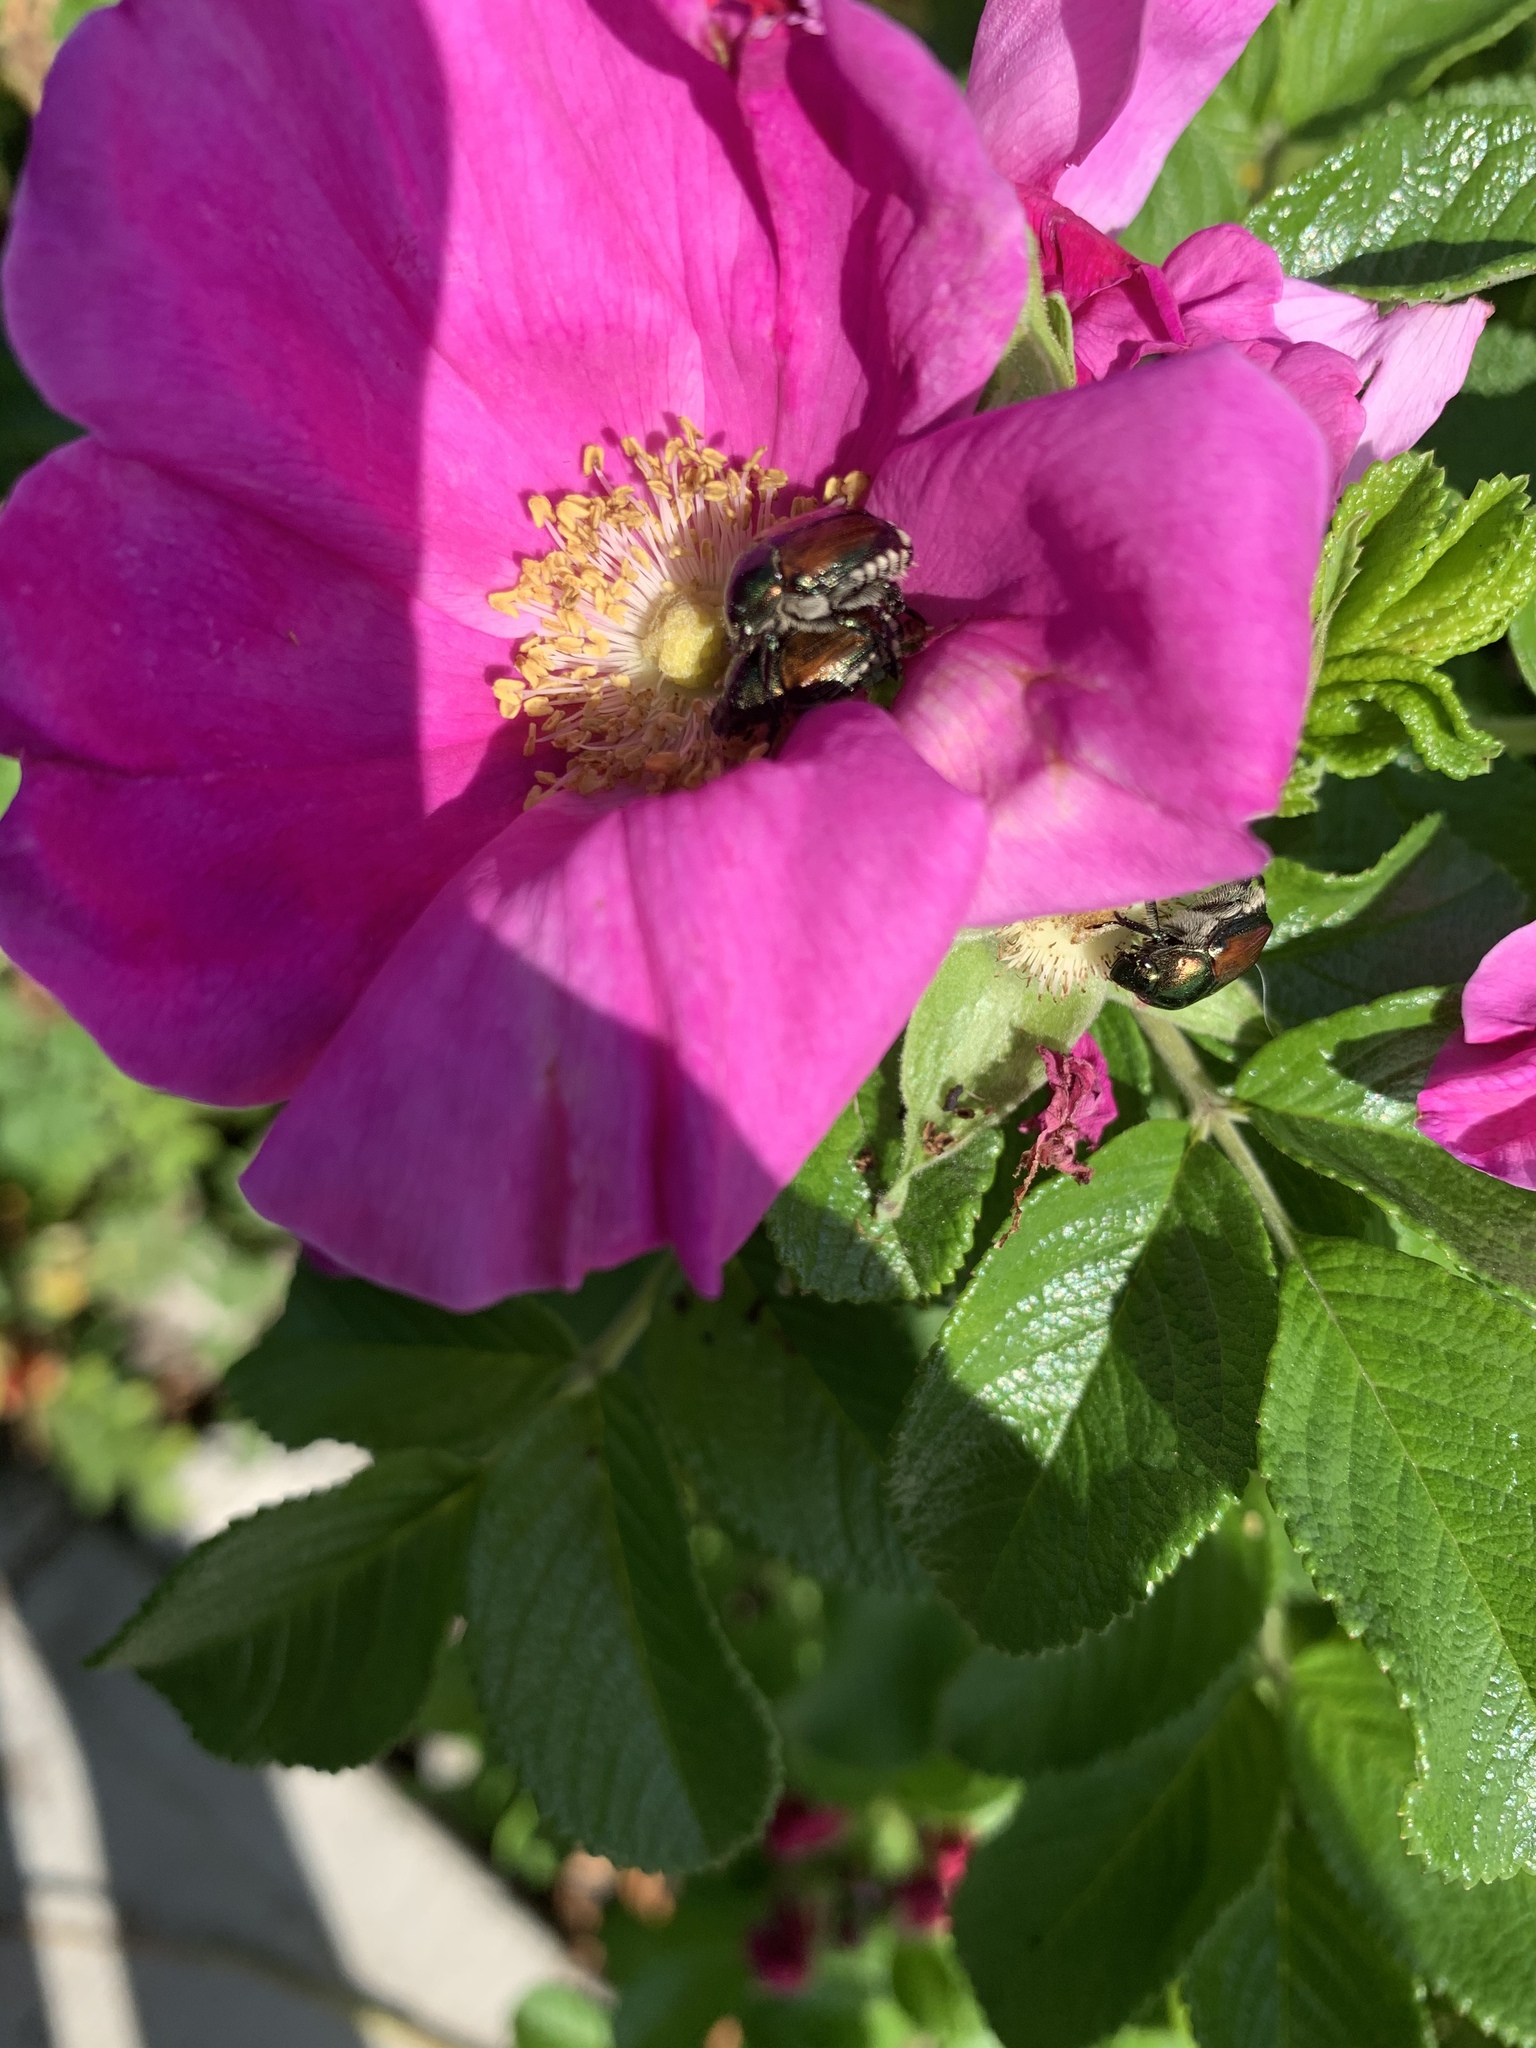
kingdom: Animalia
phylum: Arthropoda
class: Insecta
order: Coleoptera
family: Scarabaeidae
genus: Popillia
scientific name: Popillia japonica
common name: Japanese beetle
